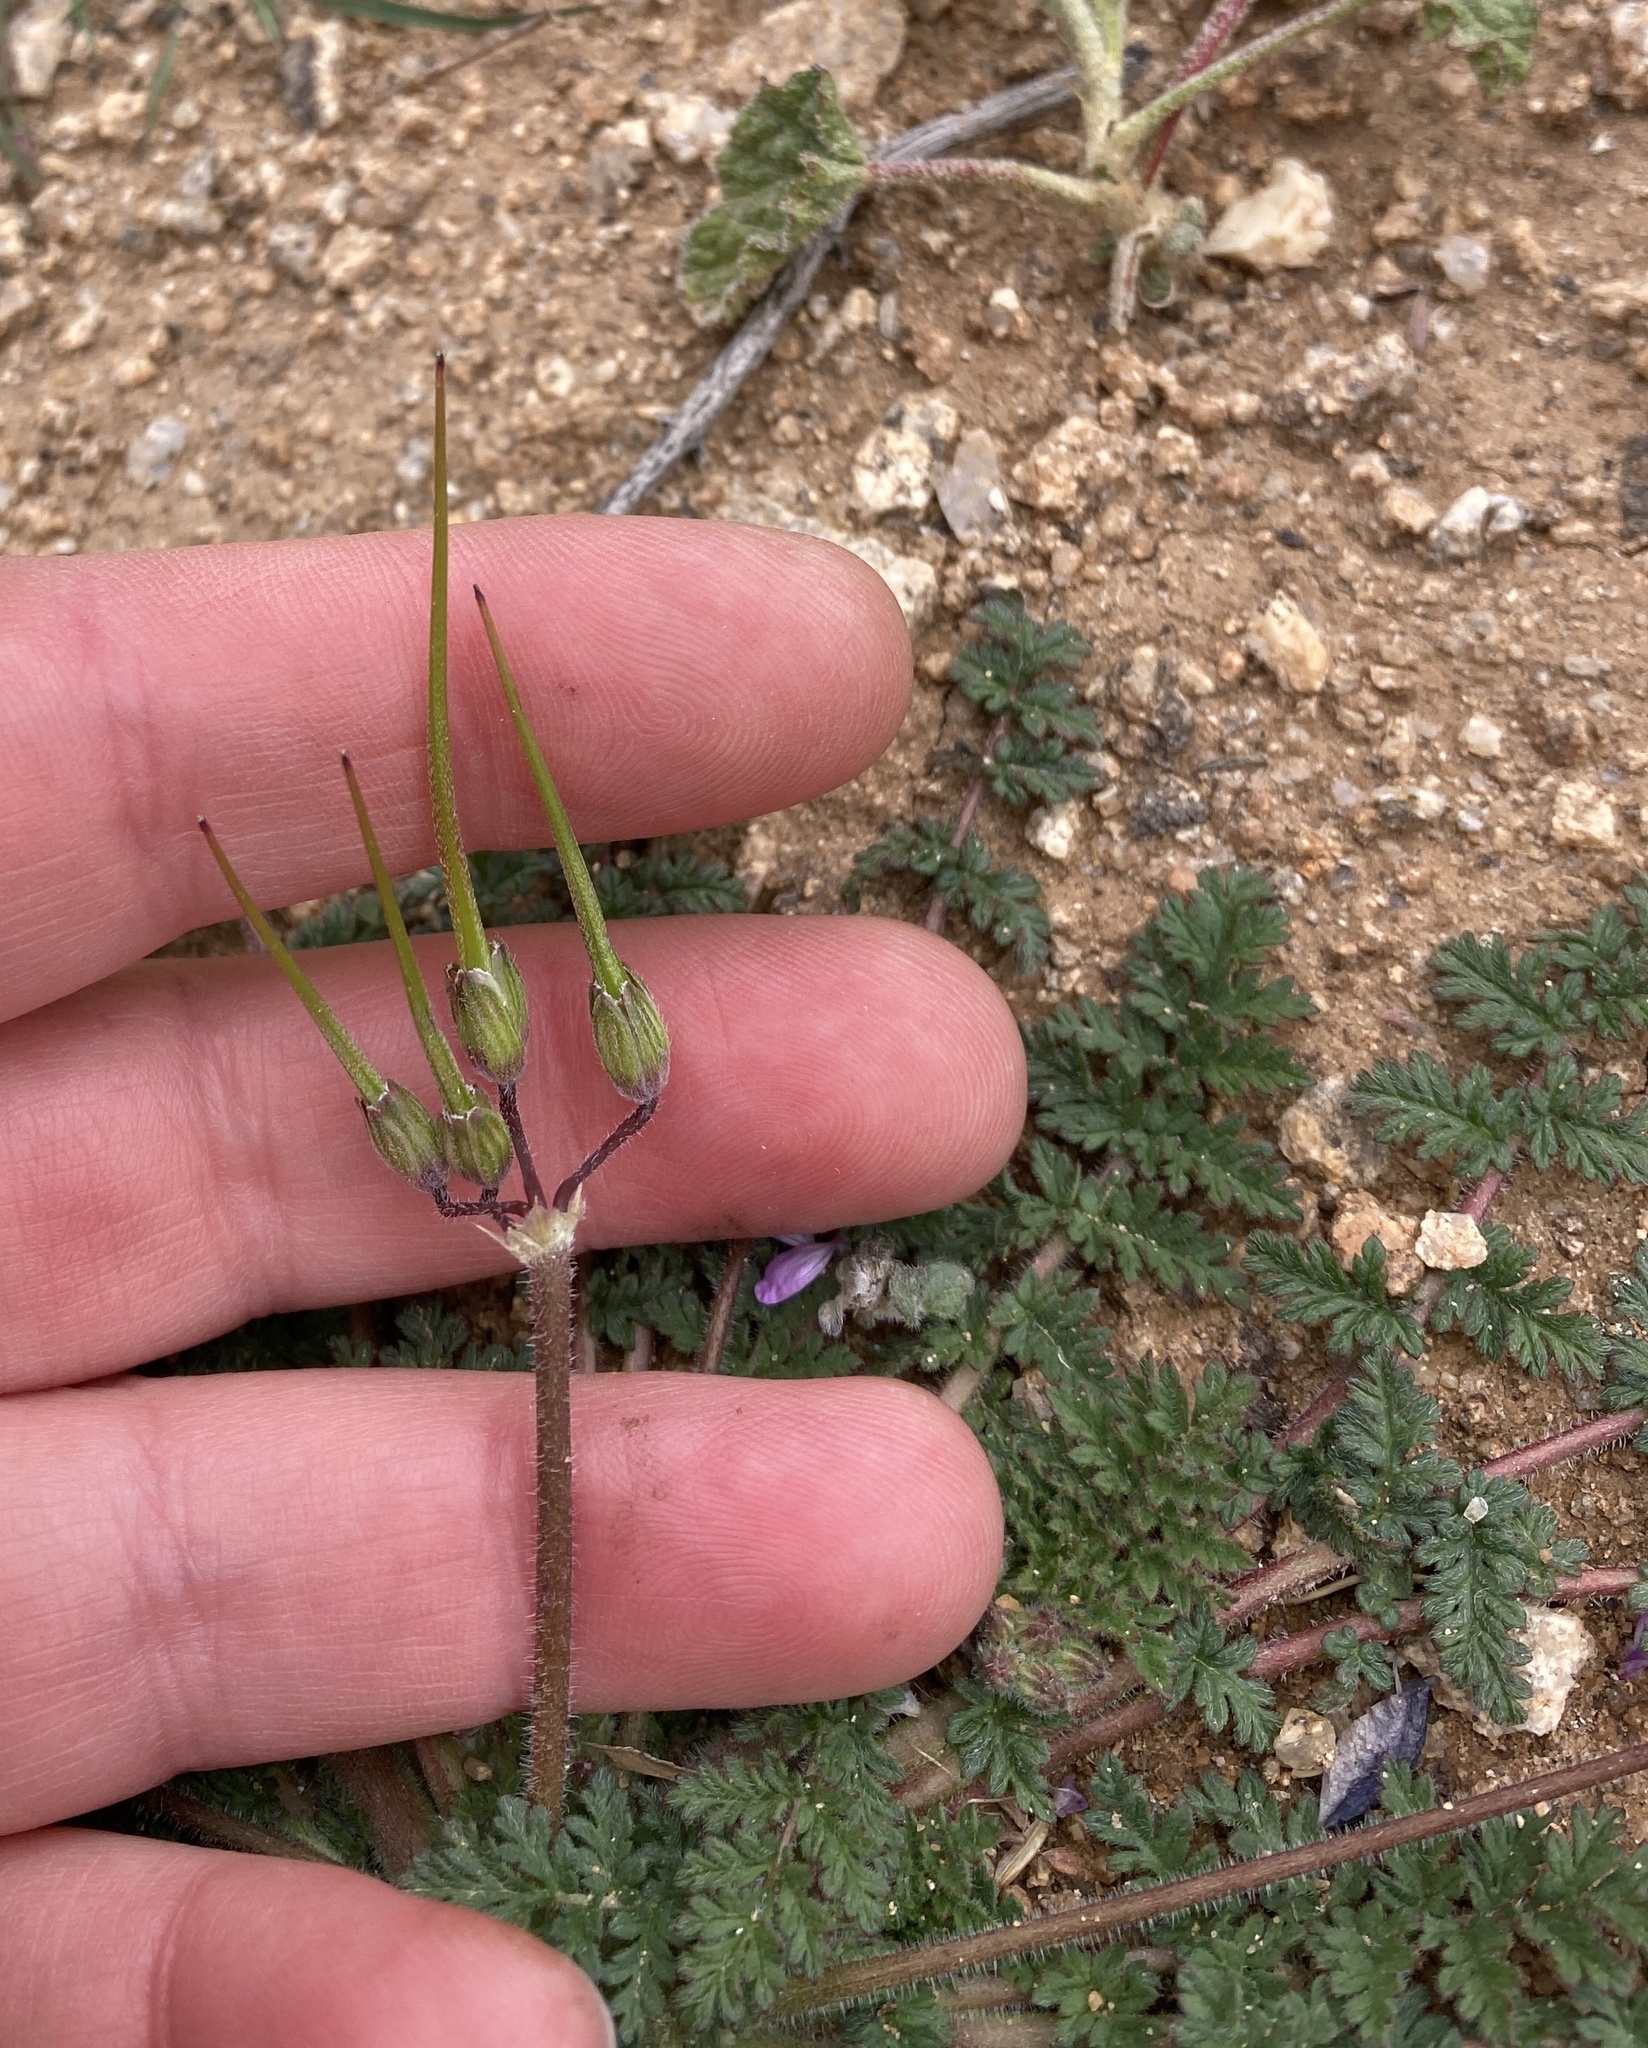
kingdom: Plantae
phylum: Tracheophyta
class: Magnoliopsida
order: Geraniales
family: Geraniaceae
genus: Erodium
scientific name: Erodium cicutarium
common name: Common stork's-bill
